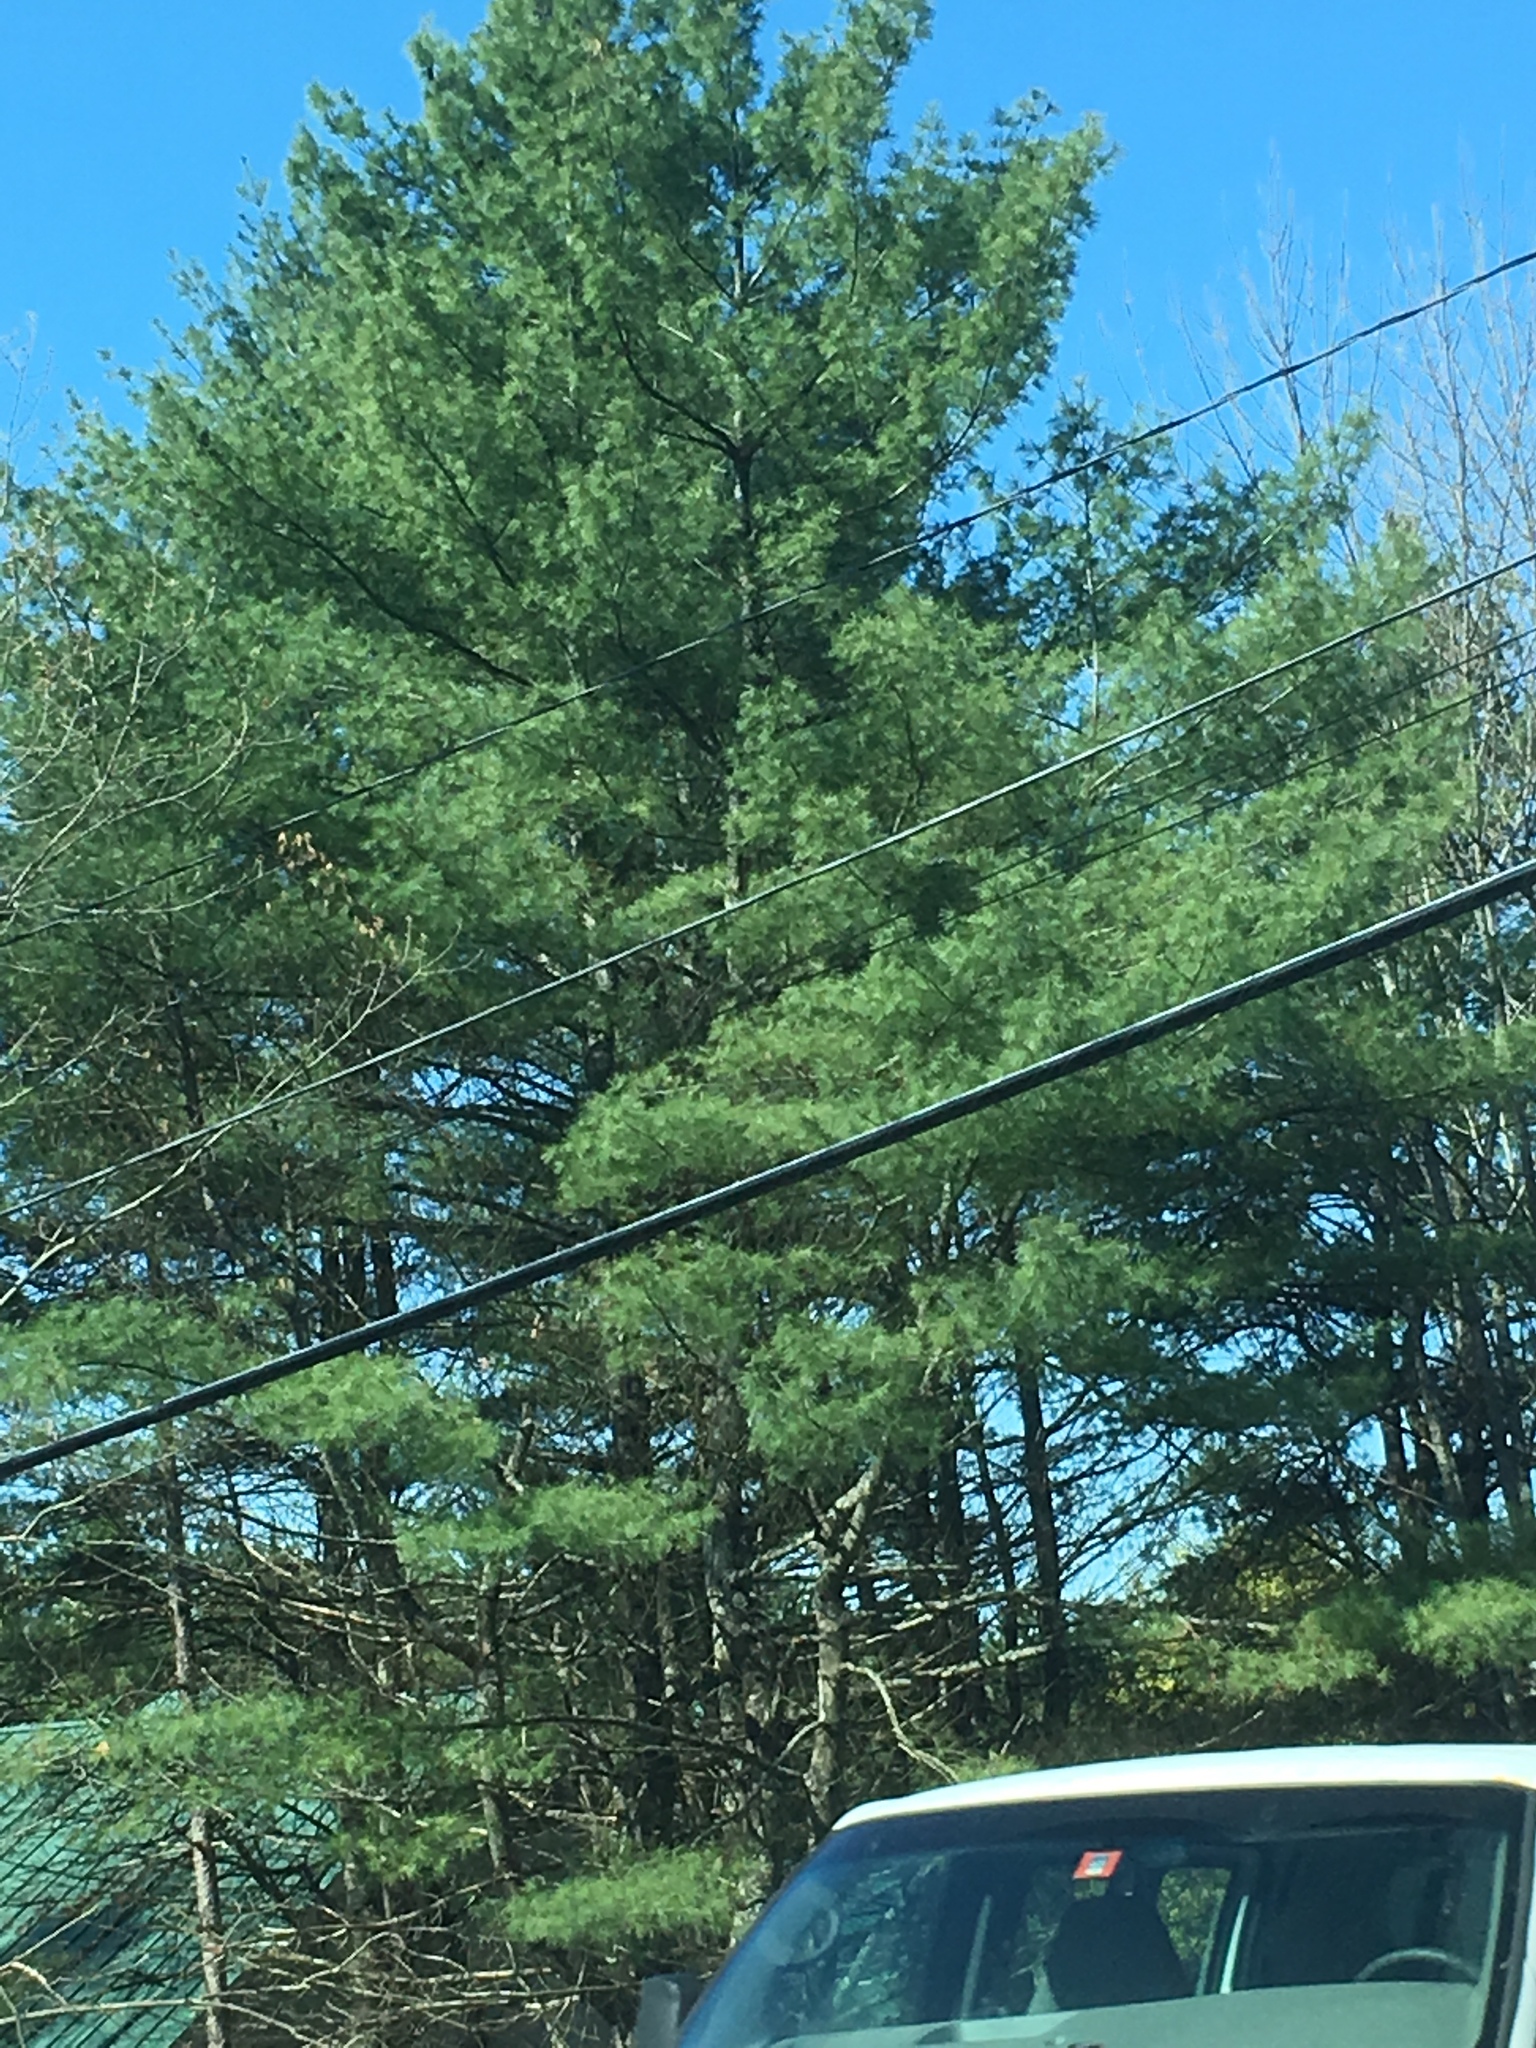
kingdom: Plantae
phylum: Tracheophyta
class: Pinopsida
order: Pinales
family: Pinaceae
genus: Pinus
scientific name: Pinus strobus
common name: Weymouth pine
